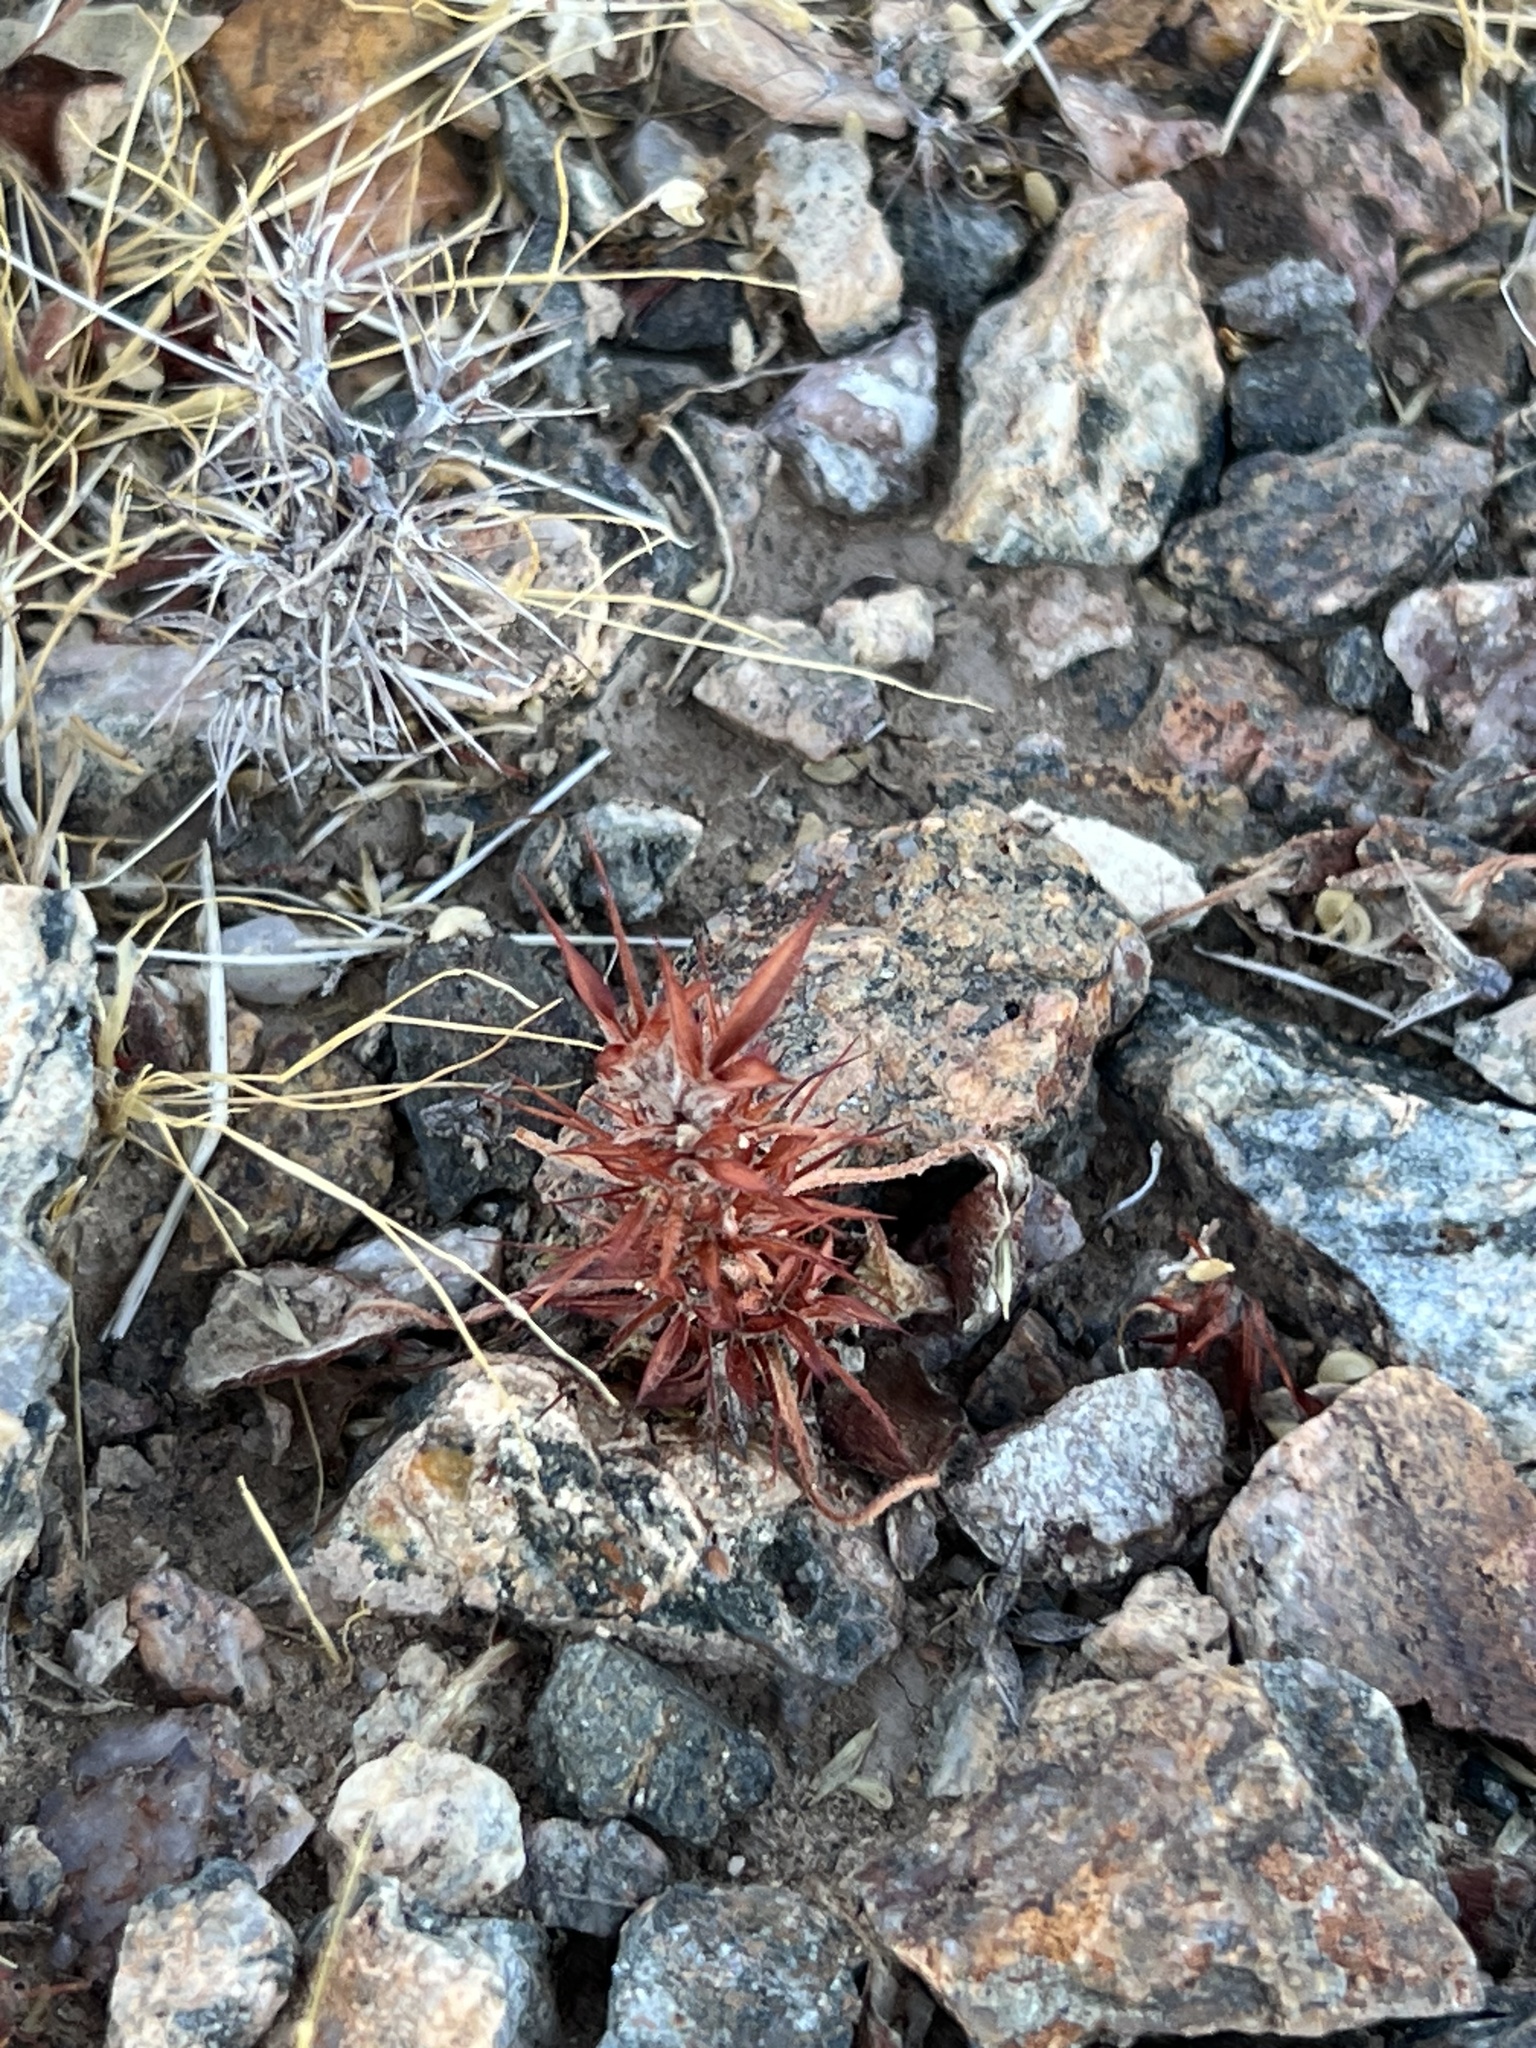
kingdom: Plantae
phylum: Tracheophyta
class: Magnoliopsida
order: Caryophyllales
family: Polygonaceae
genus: Chorizanthe
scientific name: Chorizanthe rigida
